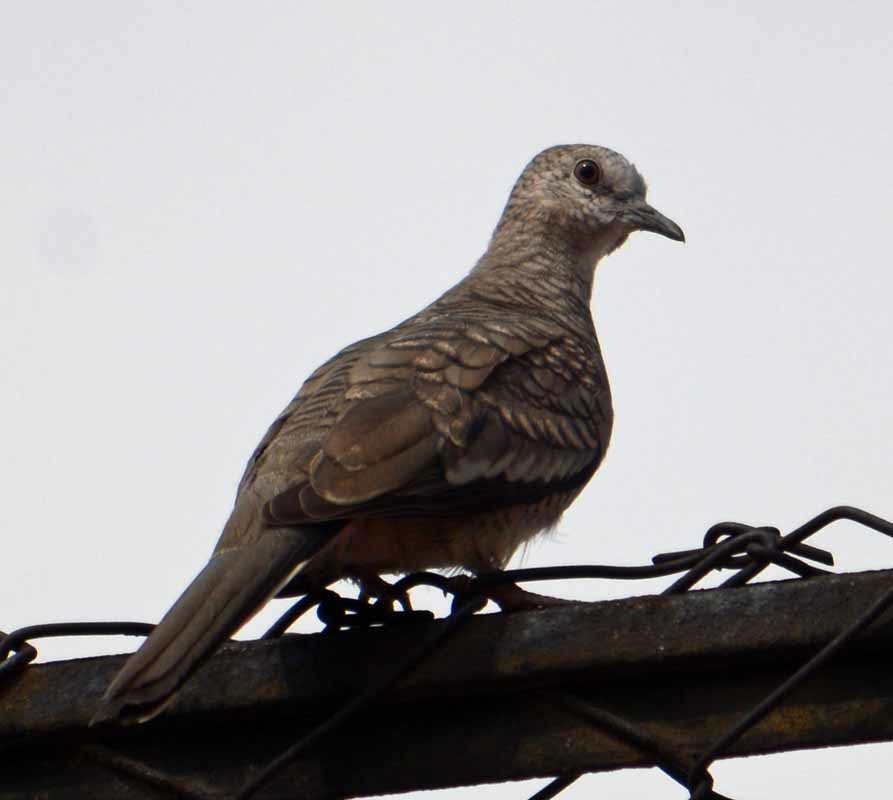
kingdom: Animalia
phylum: Chordata
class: Aves
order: Columbiformes
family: Columbidae
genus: Columbina
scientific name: Columbina inca
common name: Inca dove
